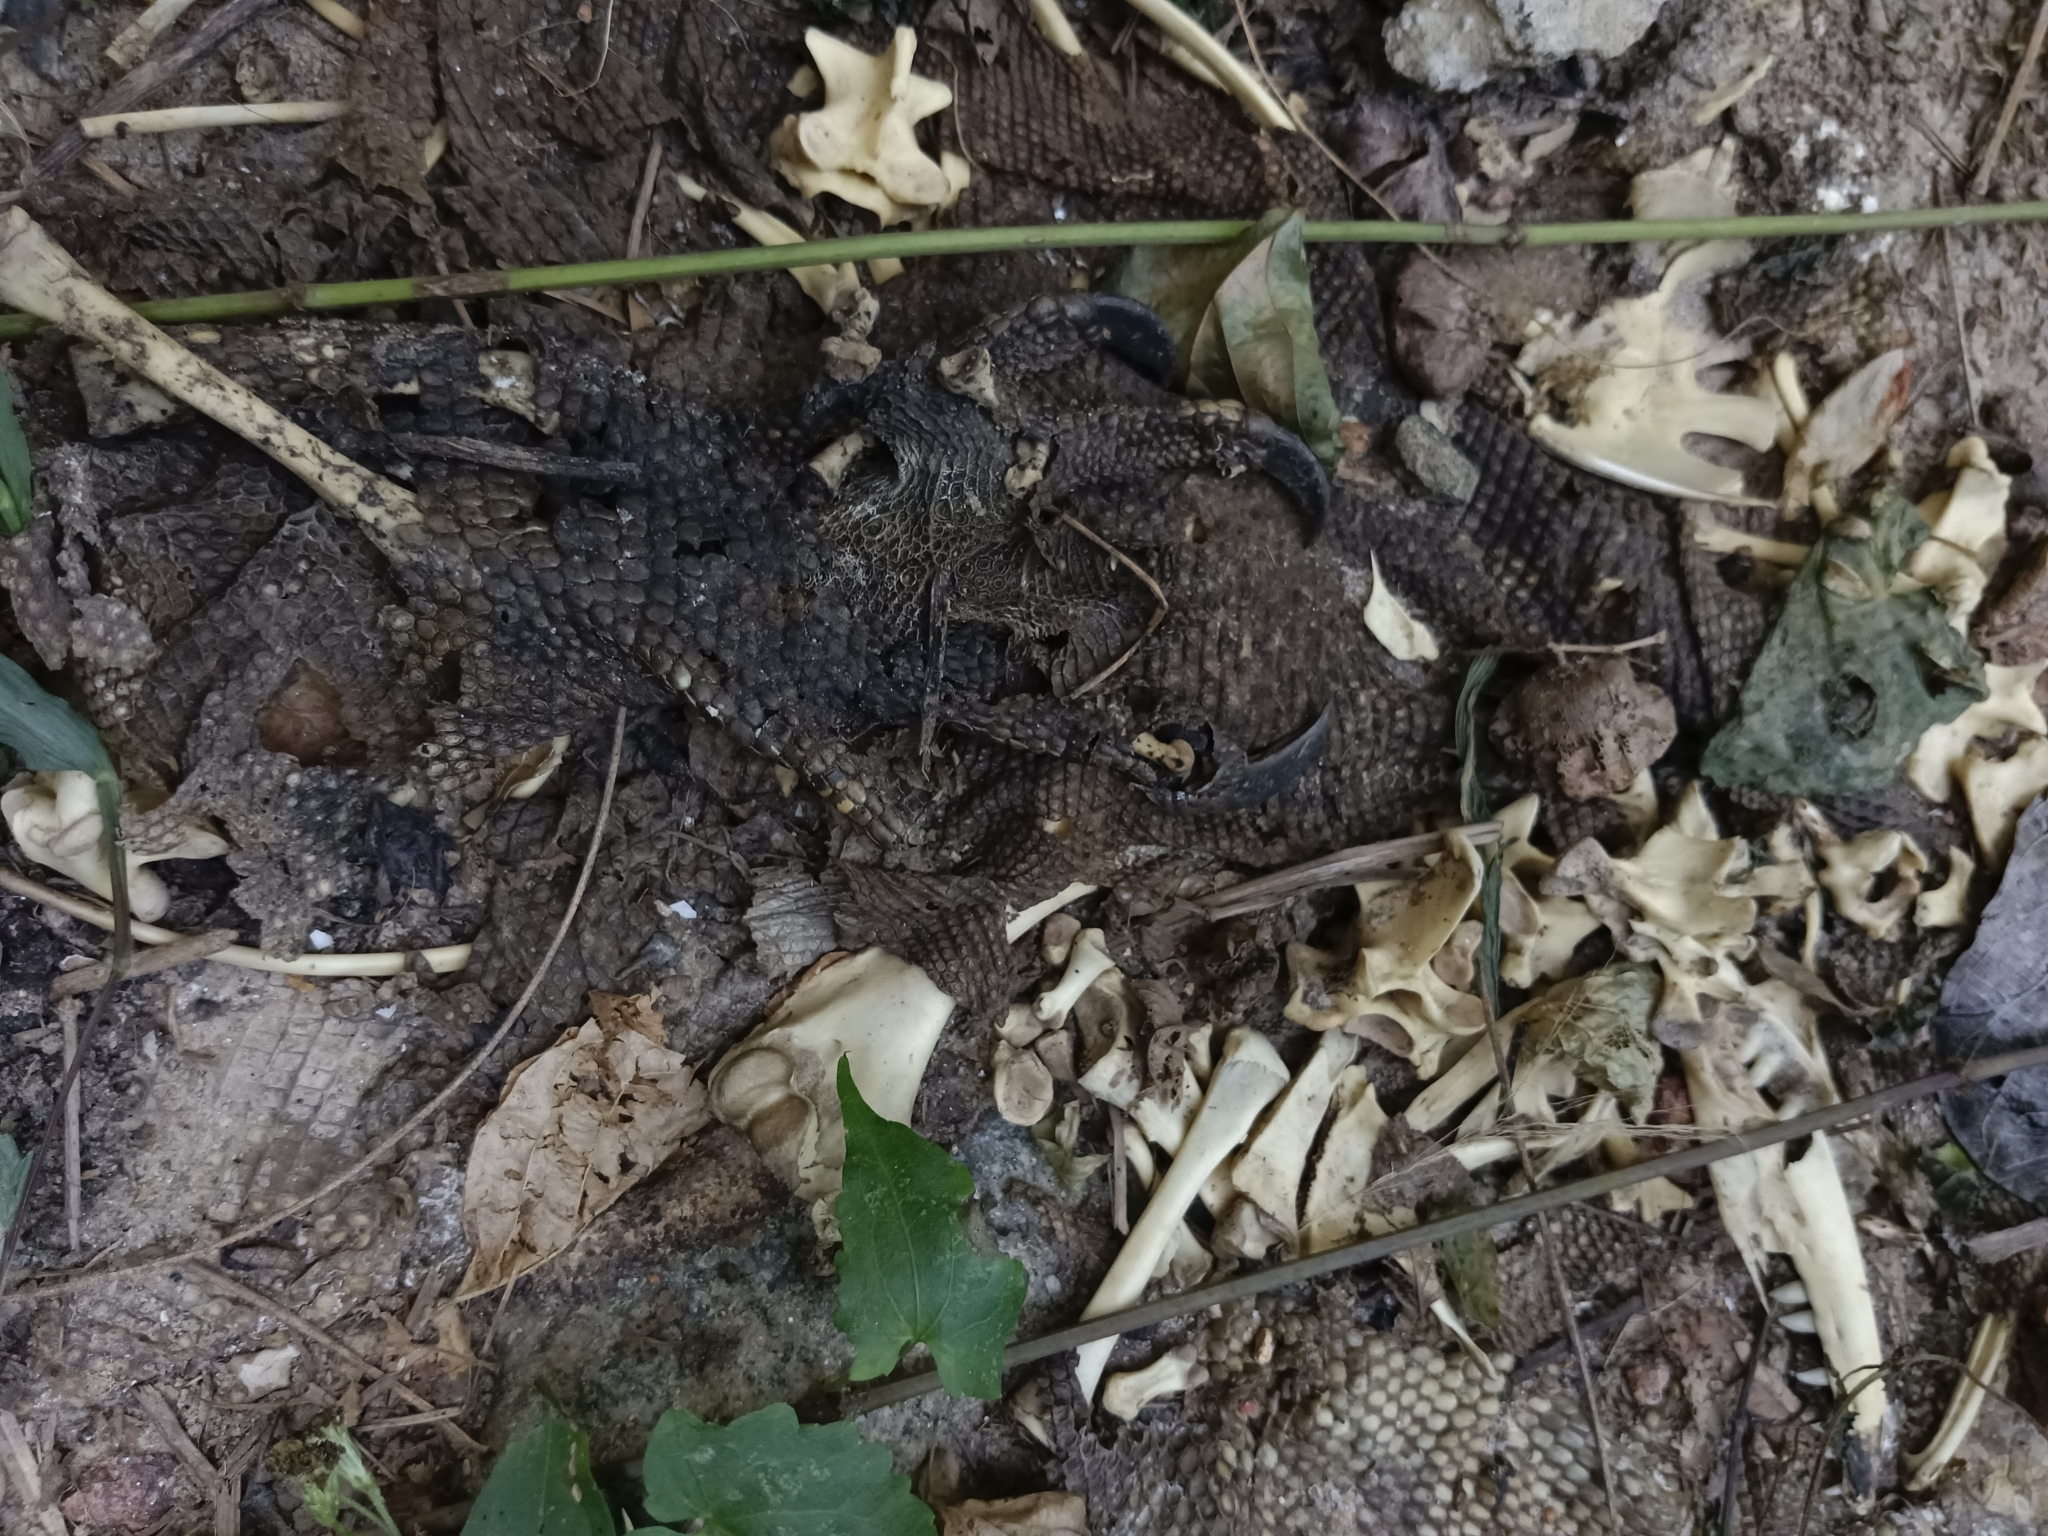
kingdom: Animalia
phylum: Chordata
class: Squamata
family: Varanidae
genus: Varanus
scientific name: Varanus bengalensis
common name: Bengal monitor
